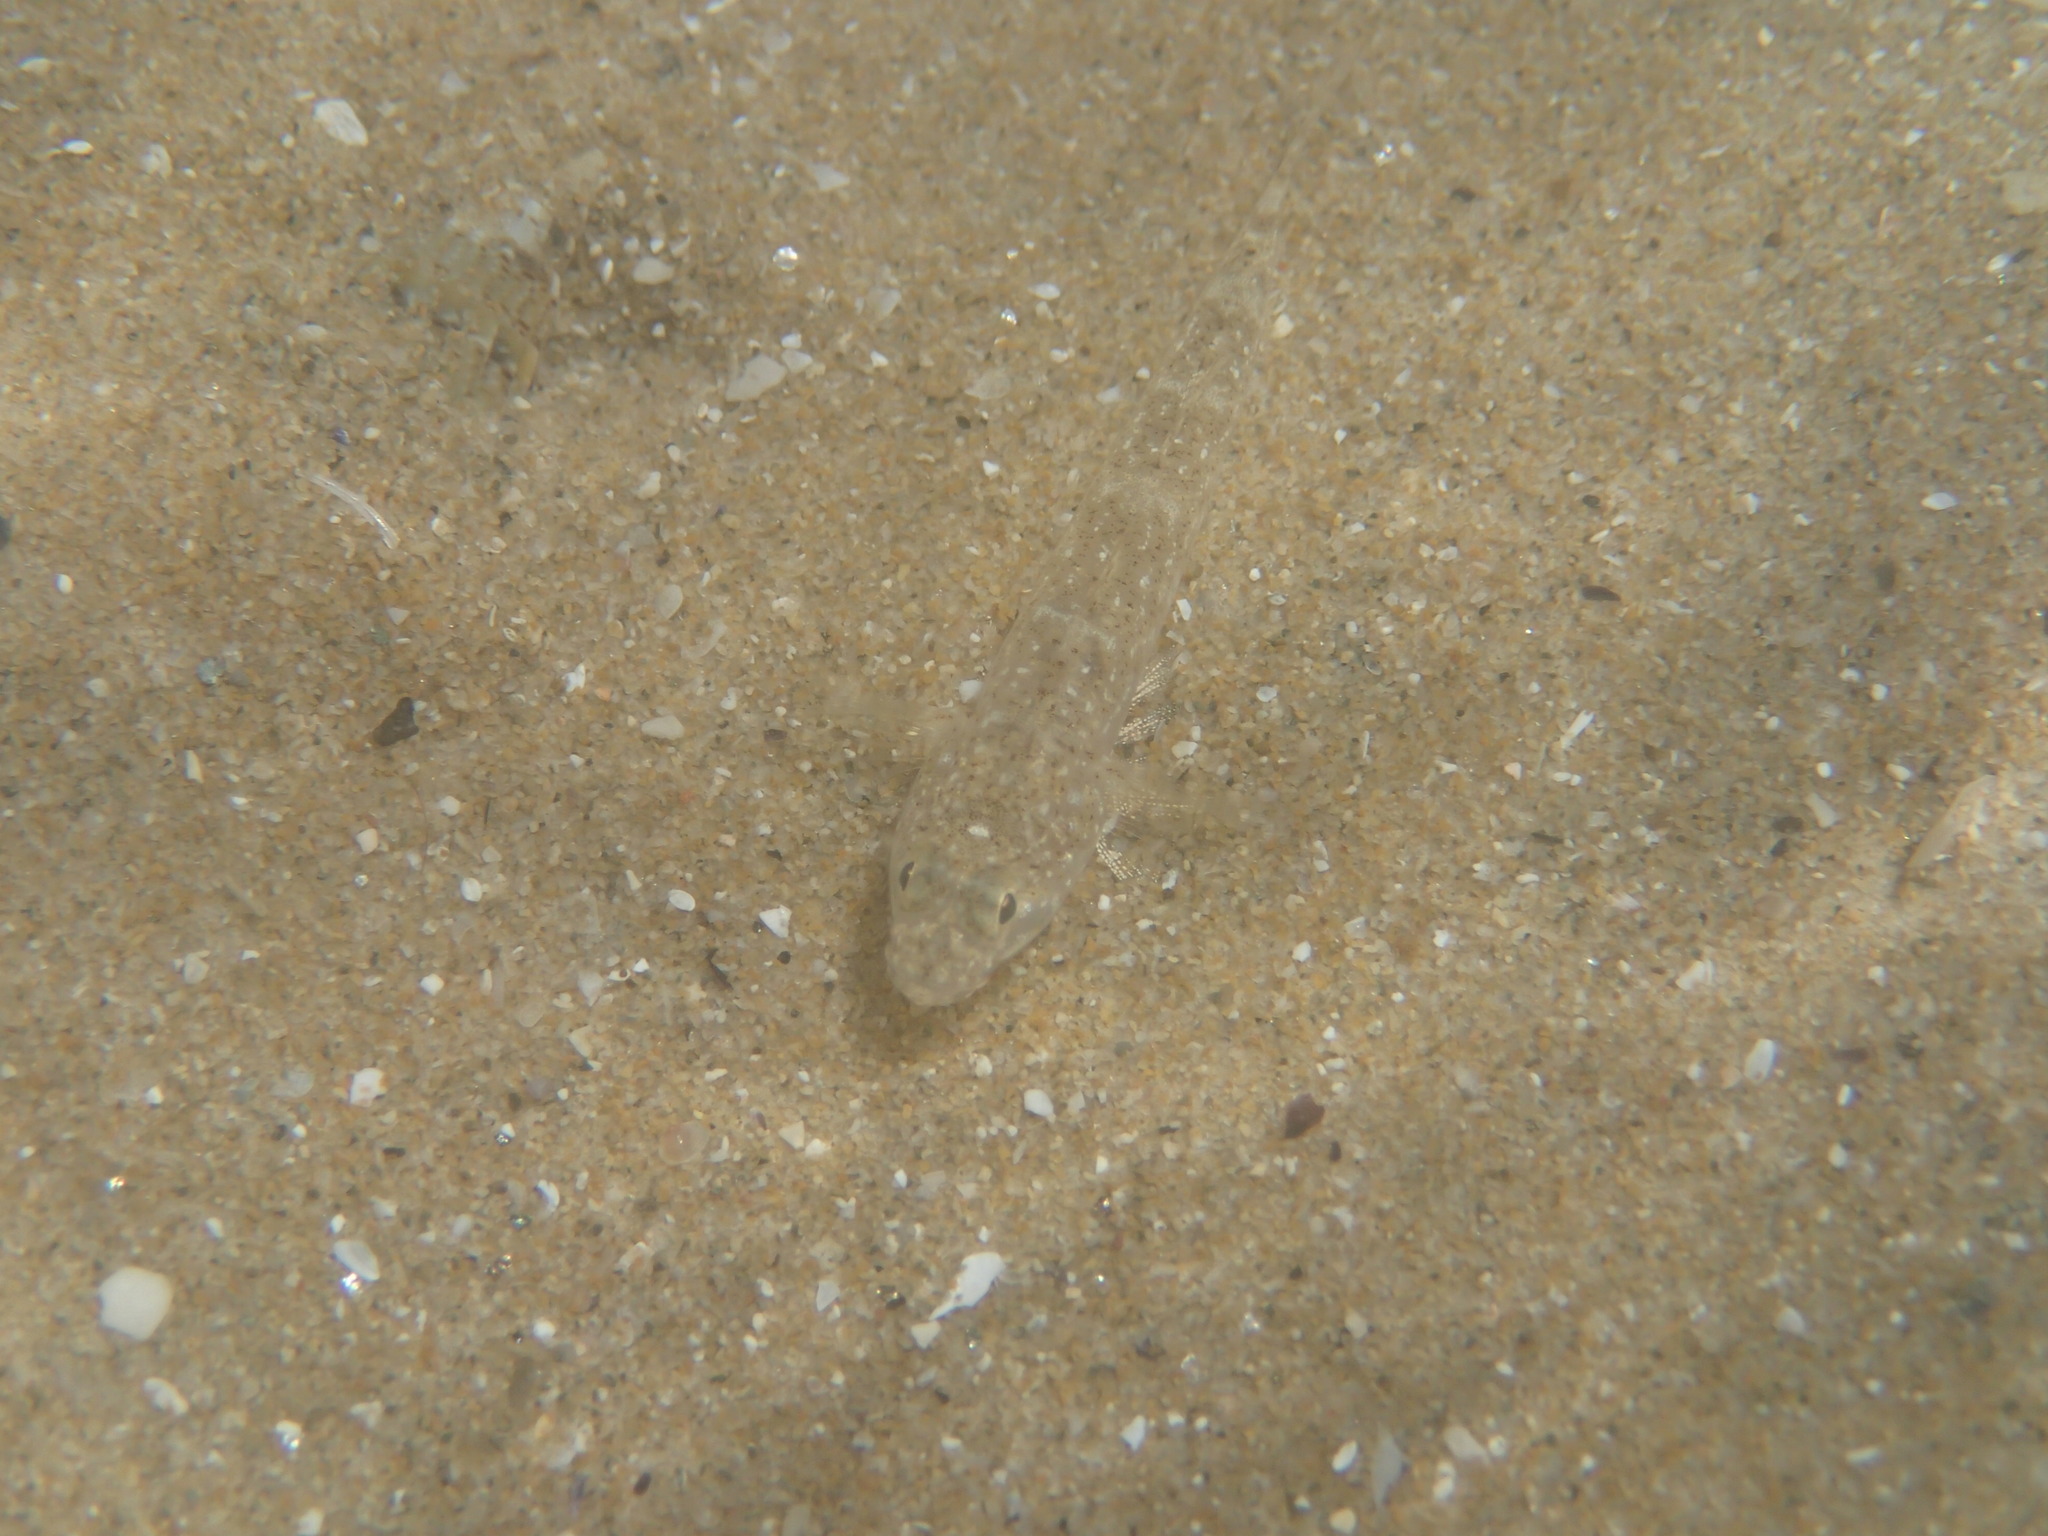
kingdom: Animalia
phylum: Chordata
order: Perciformes
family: Gobiidae
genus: Pomatoschistus
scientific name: Pomatoschistus marmoratus
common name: Marbled goby
